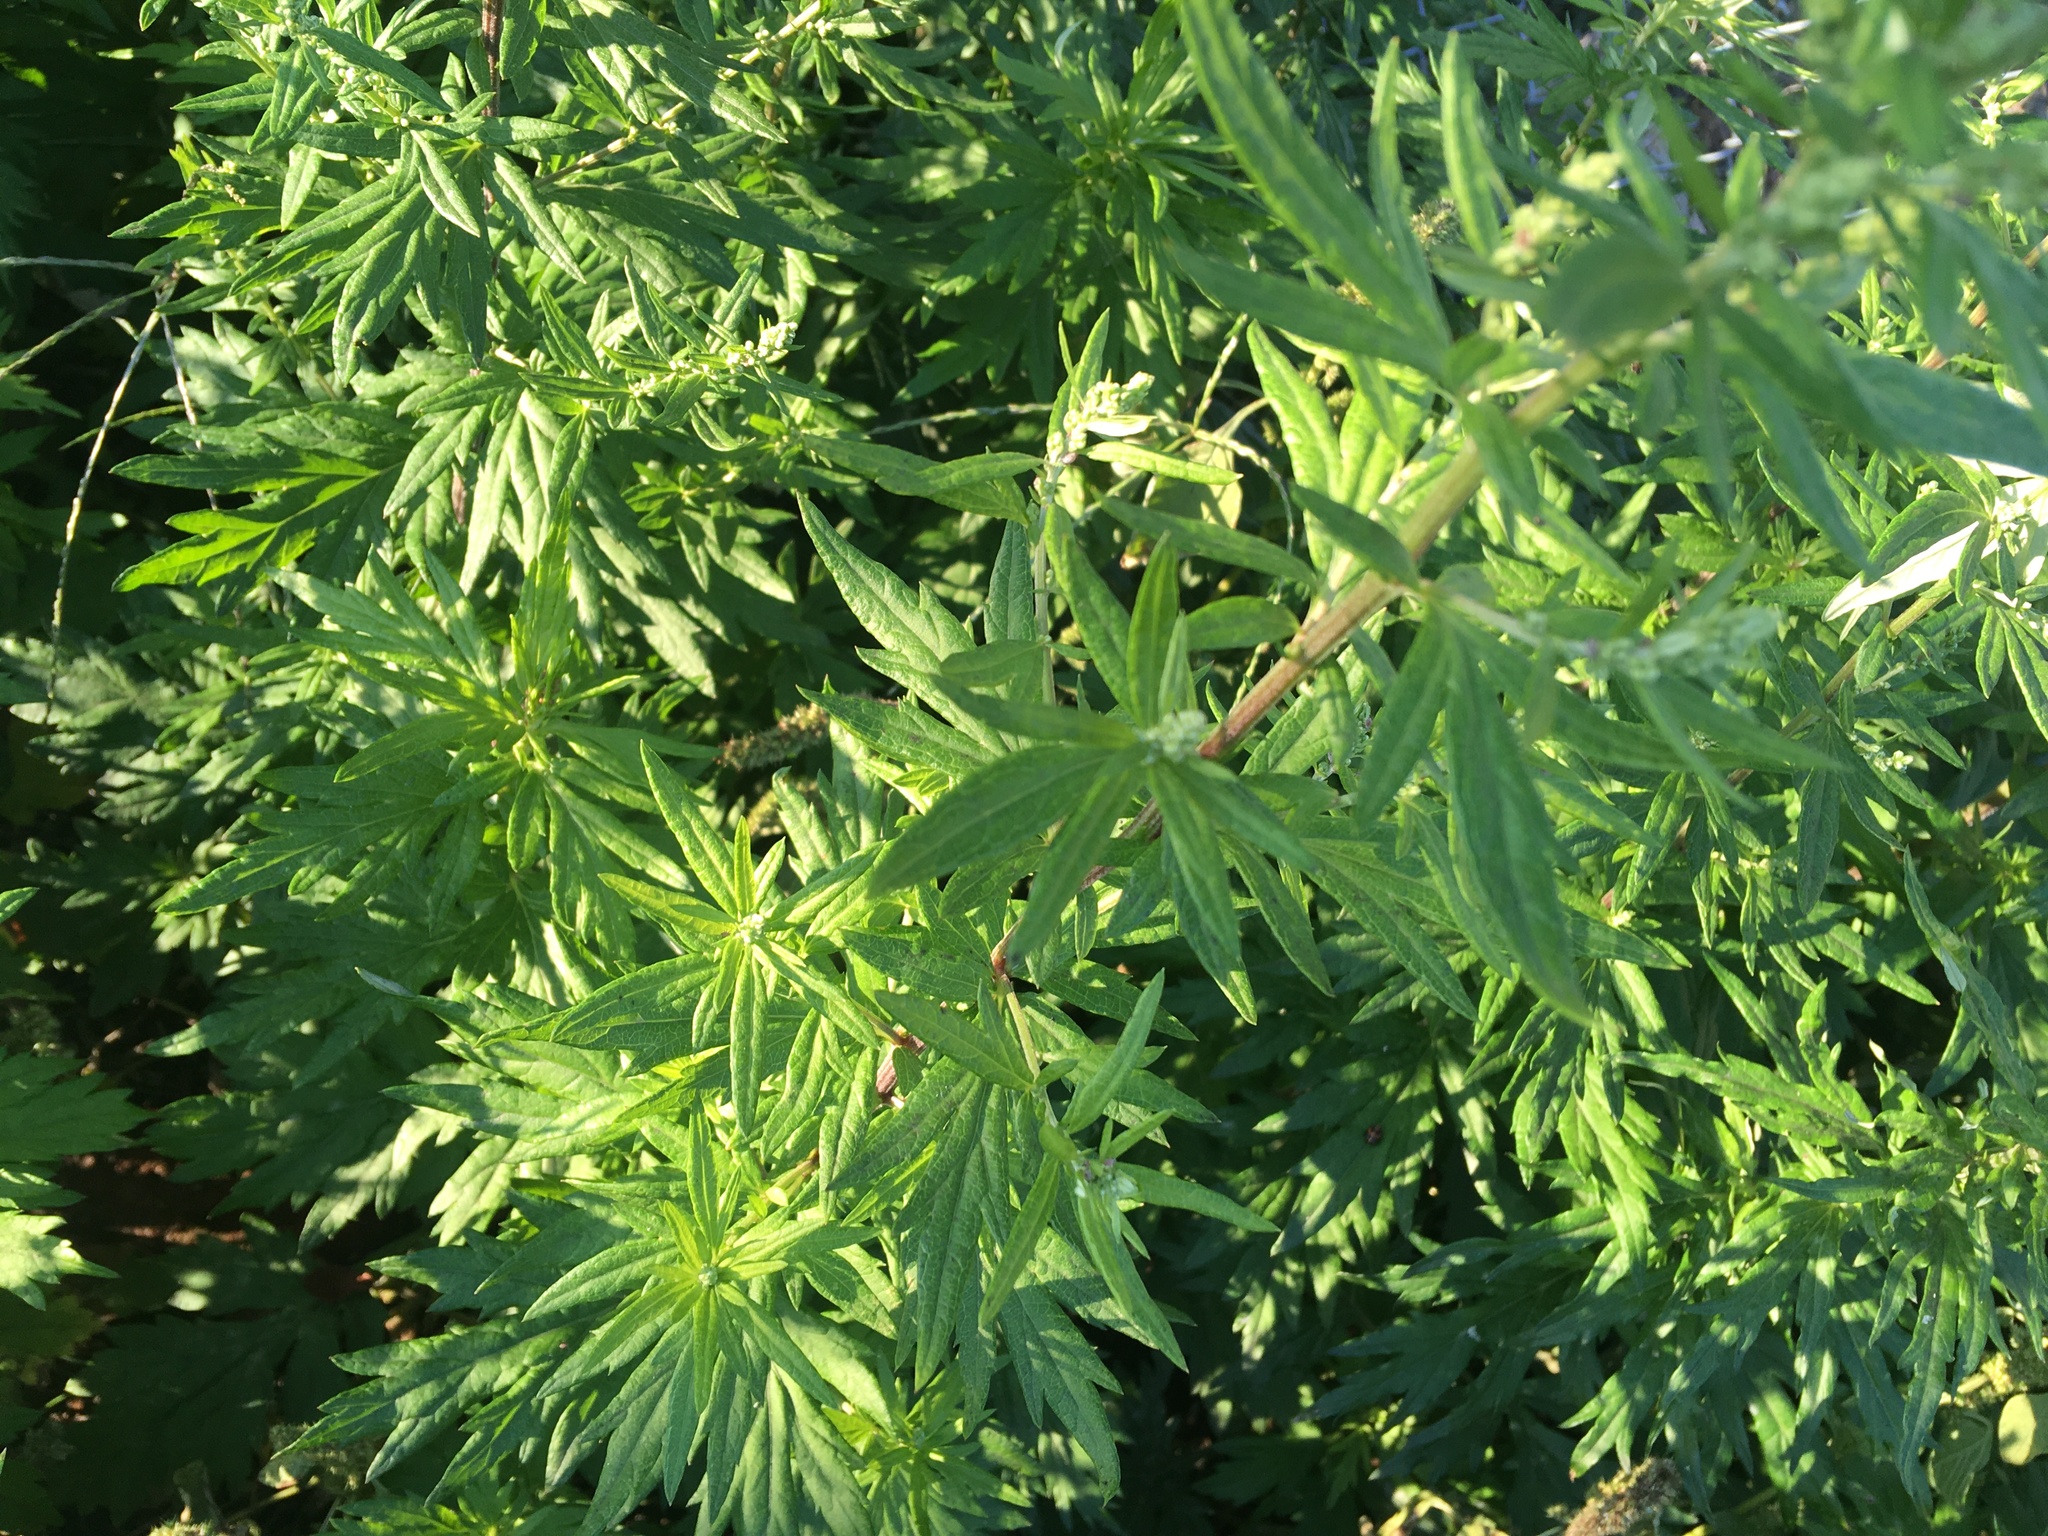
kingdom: Plantae
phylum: Tracheophyta
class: Magnoliopsida
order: Asterales
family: Asteraceae
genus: Artemisia
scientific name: Artemisia vulgaris
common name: Mugwort
